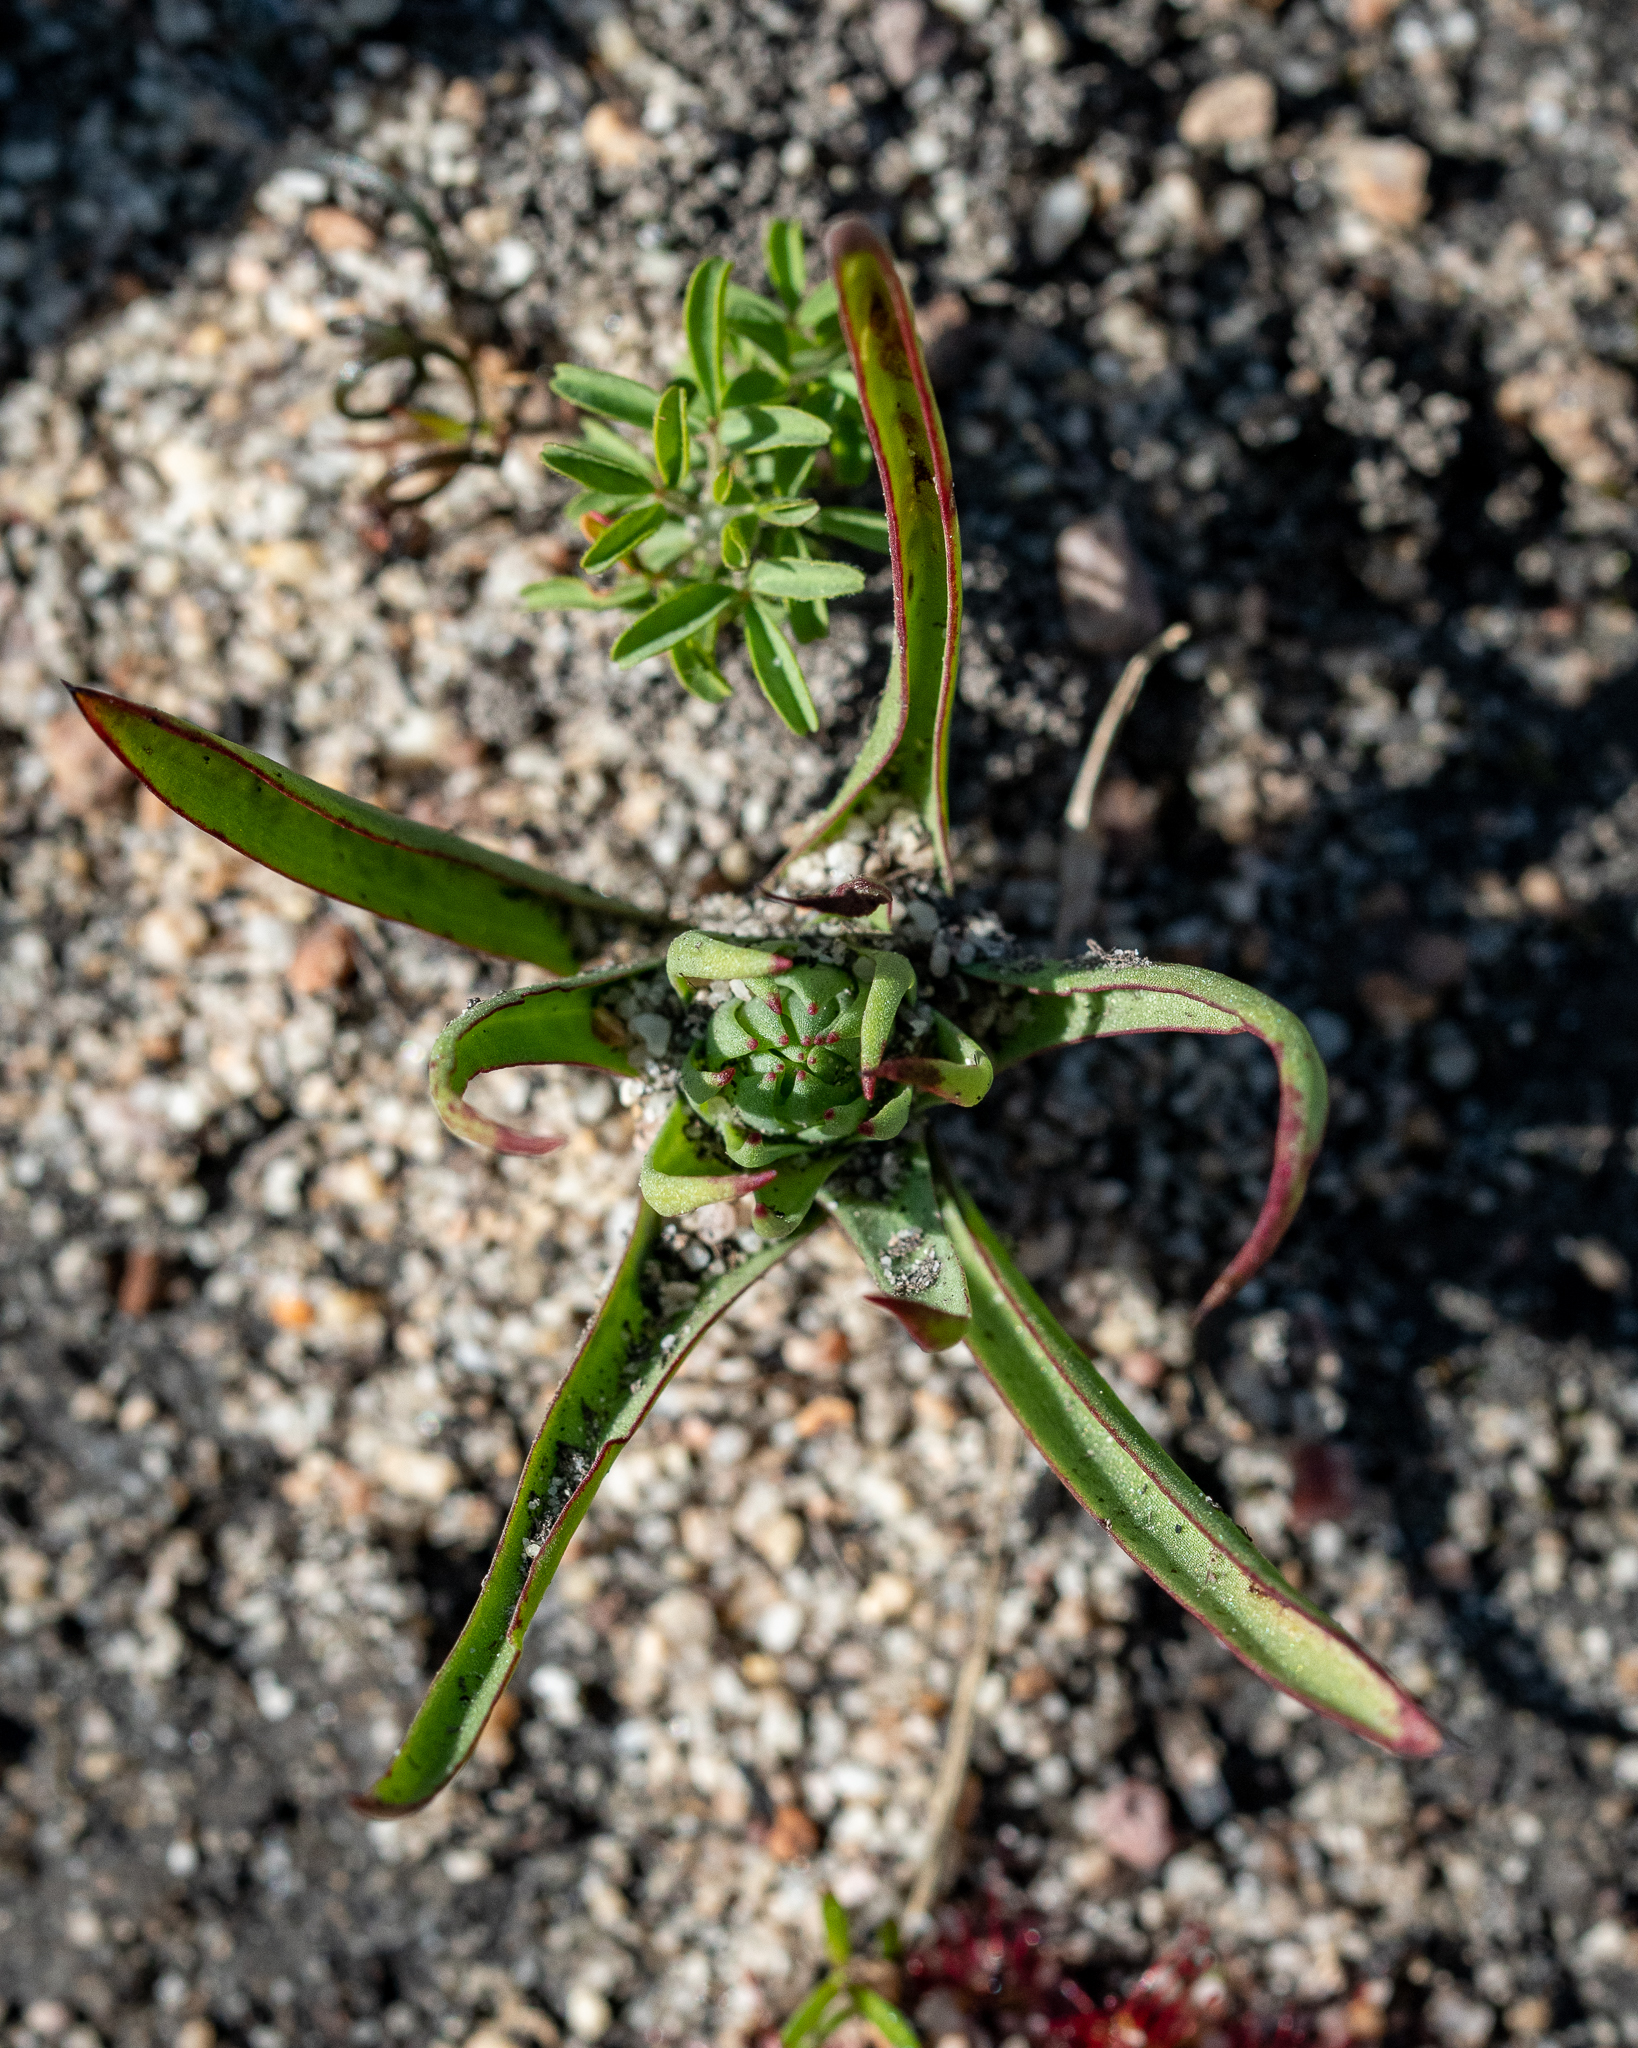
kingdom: Plantae
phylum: Tracheophyta
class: Liliopsida
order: Asparagales
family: Orchidaceae
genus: Disa
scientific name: Disa bracteata
